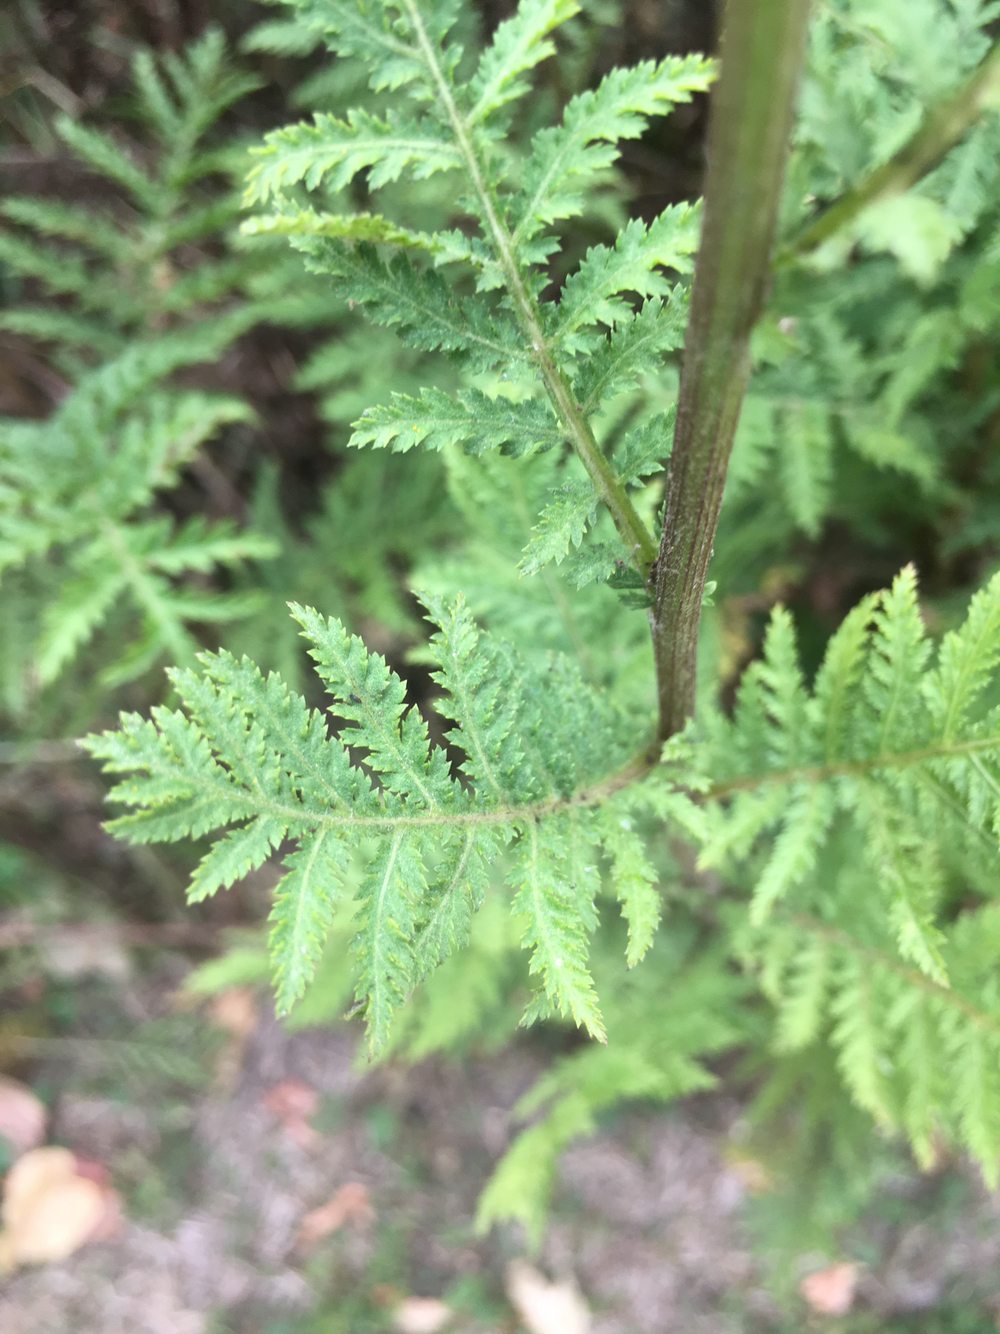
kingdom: Plantae
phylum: Tracheophyta
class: Magnoliopsida
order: Asterales
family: Asteraceae
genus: Tanacetum
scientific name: Tanacetum vulgare
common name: Common tansy
